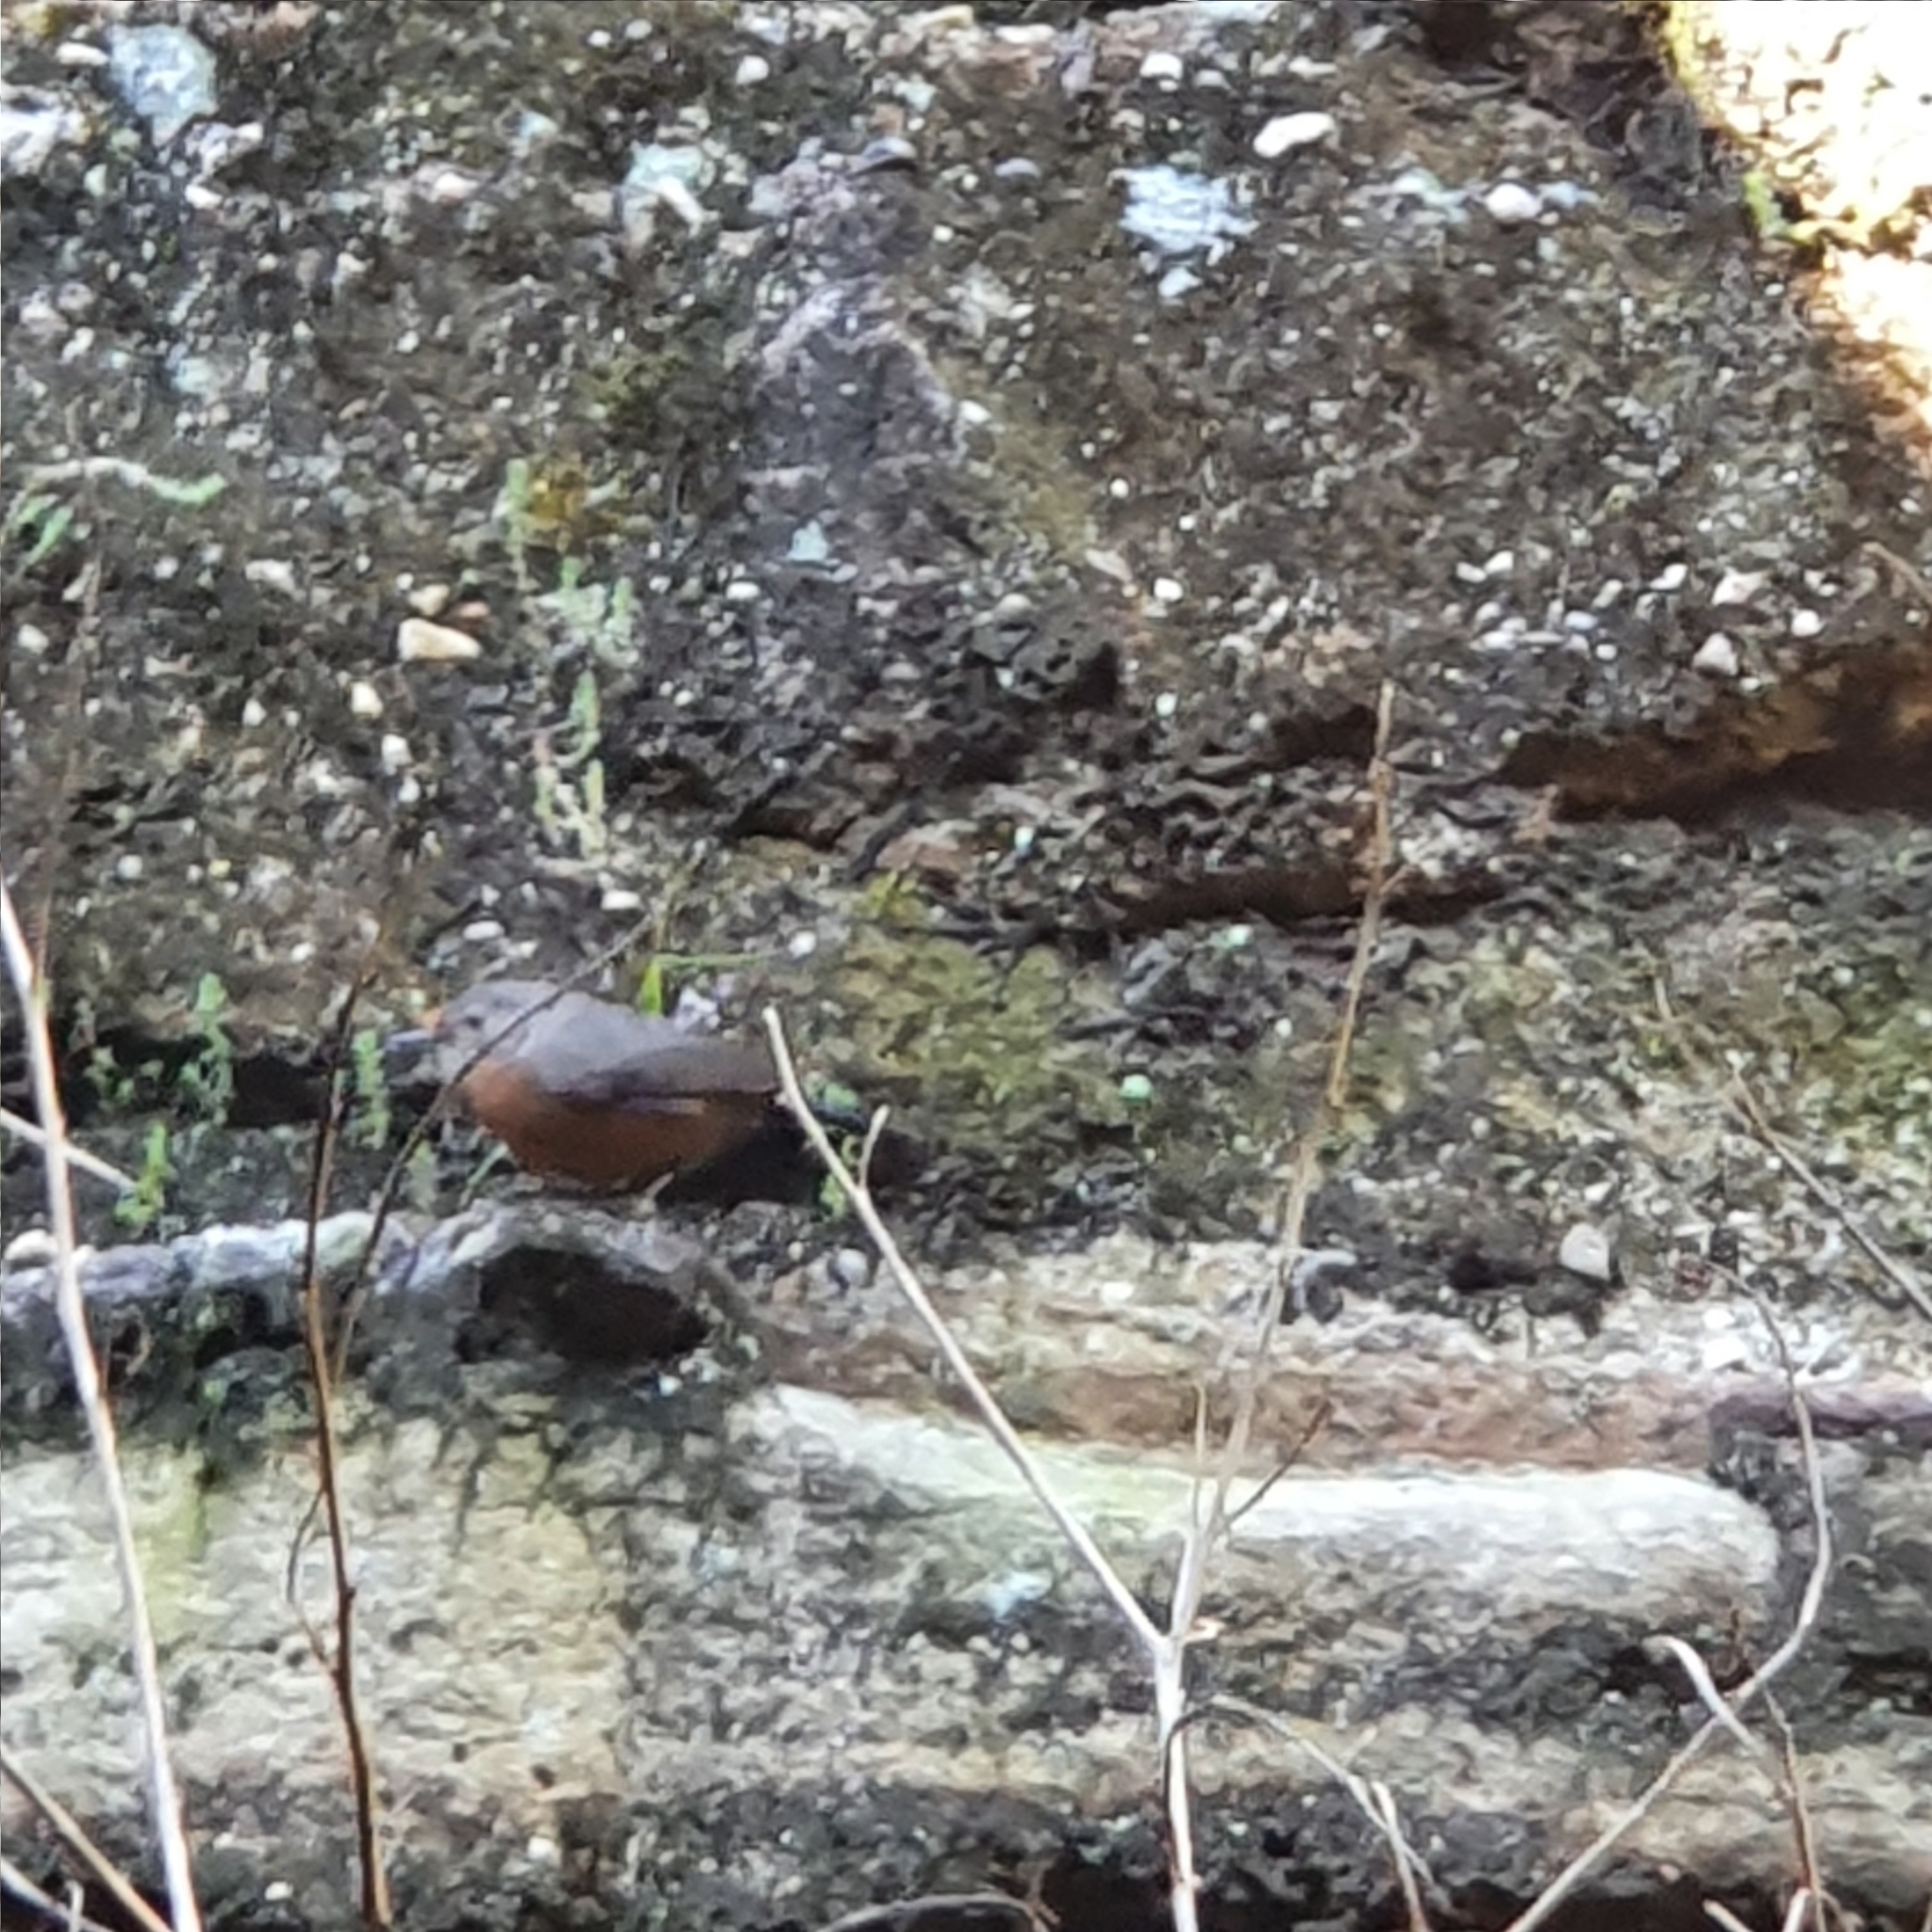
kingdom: Animalia
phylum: Chordata
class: Aves
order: Passeriformes
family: Acanthizidae
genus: Origma
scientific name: Origma solitaria
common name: Rockwarbler
